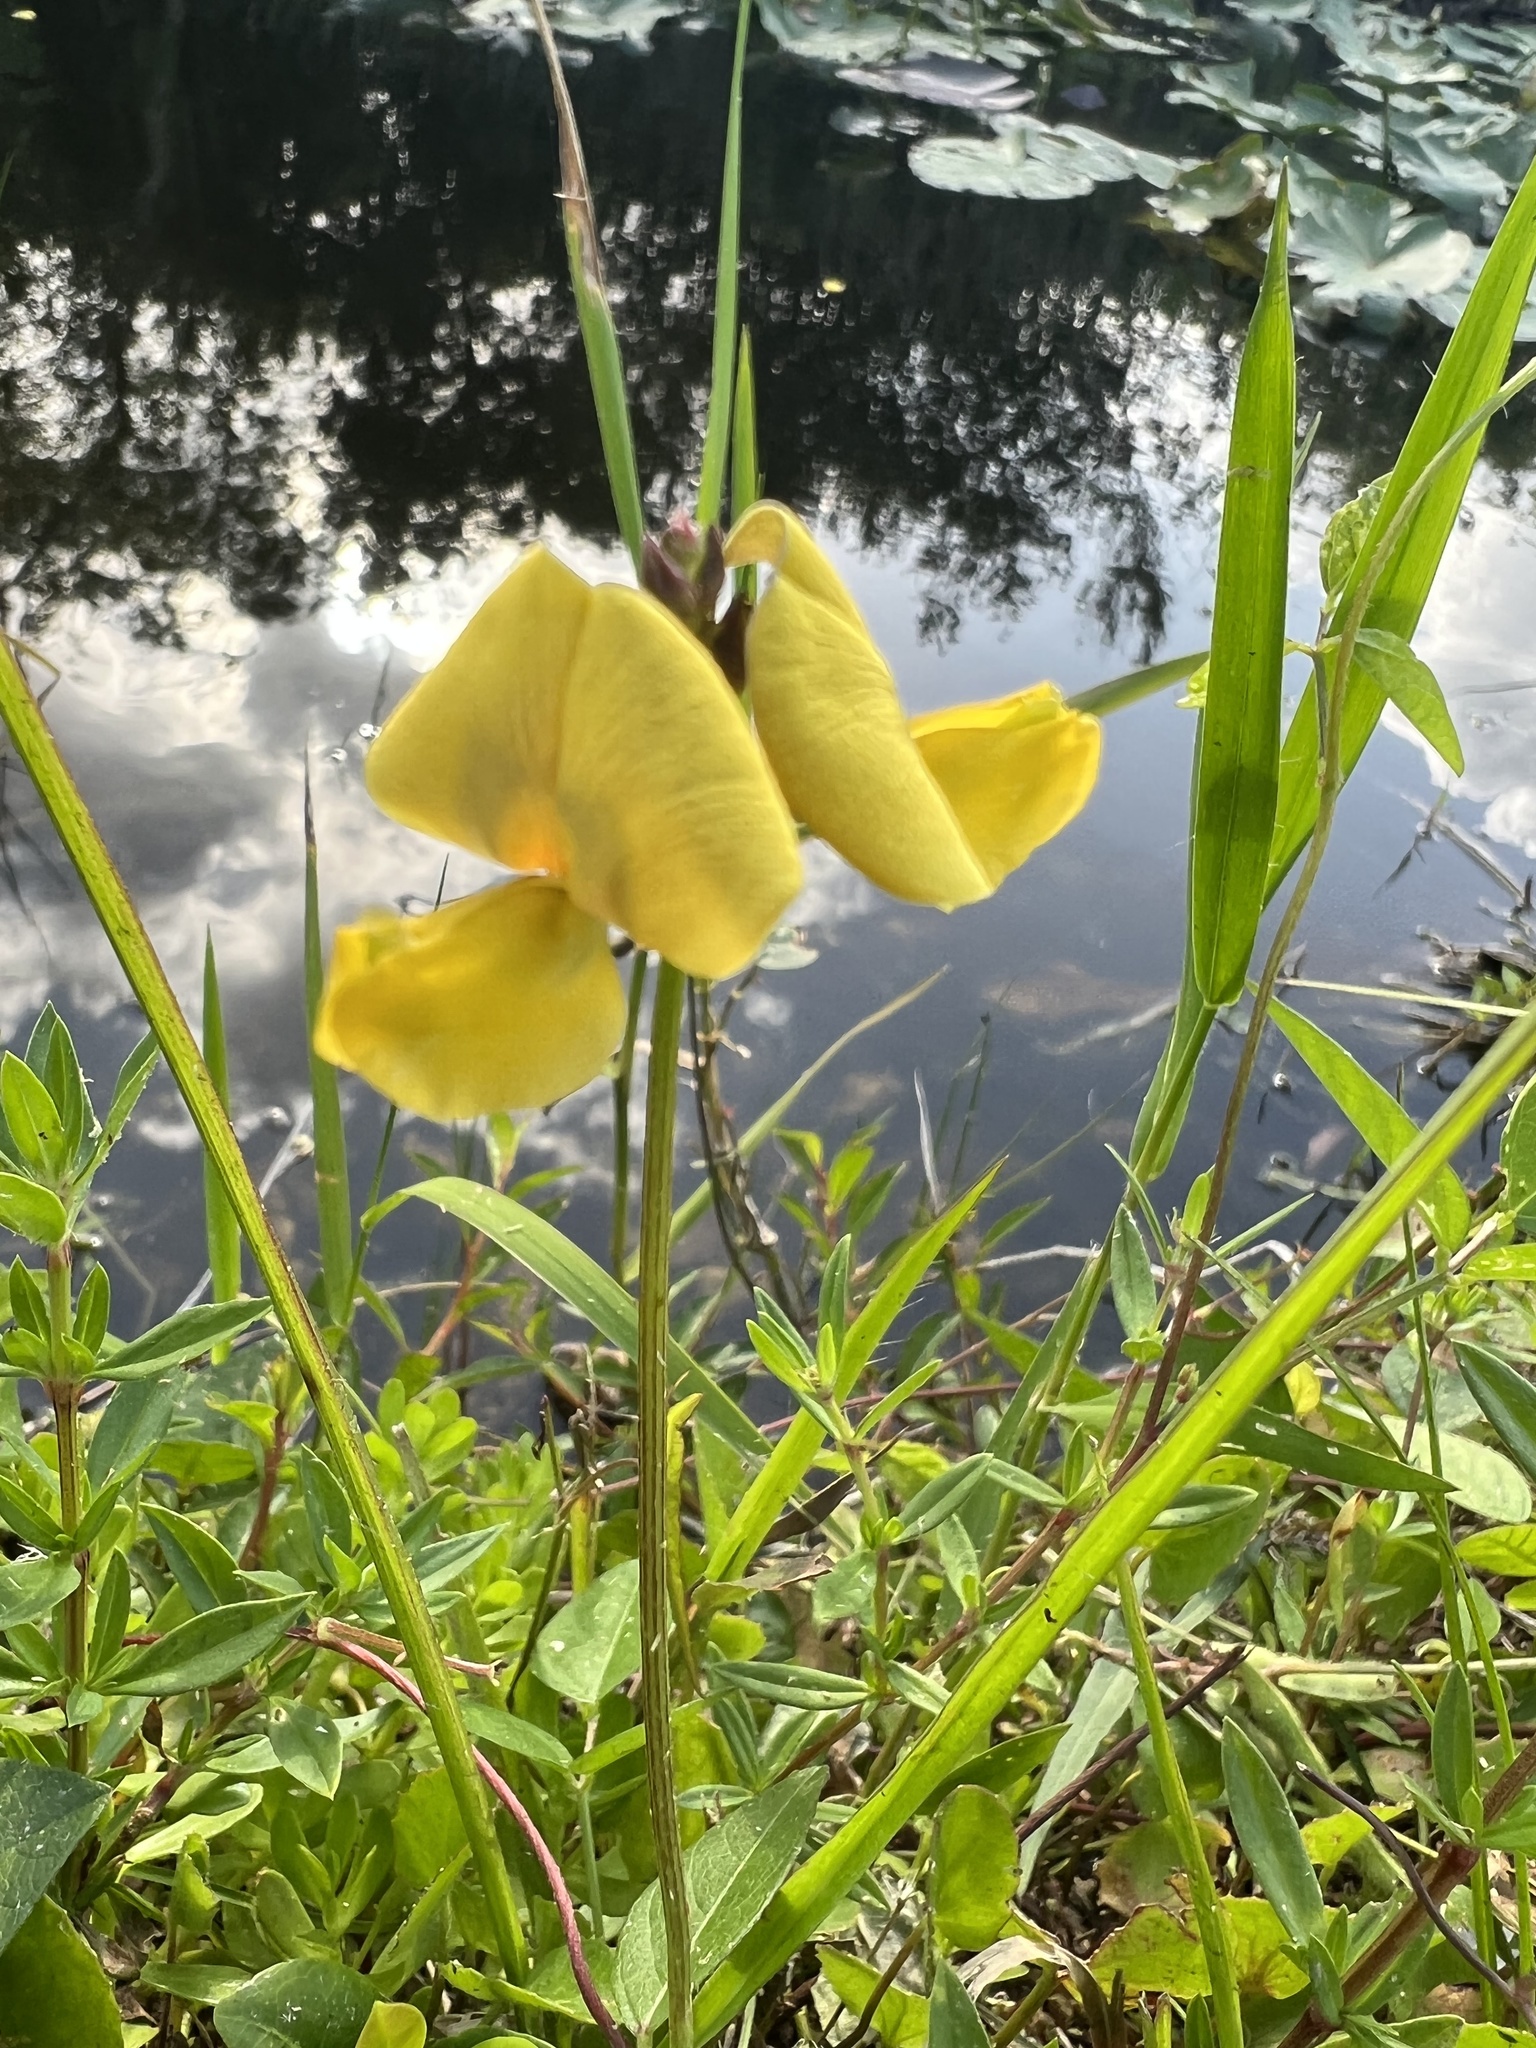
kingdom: Plantae
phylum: Tracheophyta
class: Magnoliopsida
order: Fabales
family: Fabaceae
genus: Vigna
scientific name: Vigna luteola
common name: Hairypod cowpea
